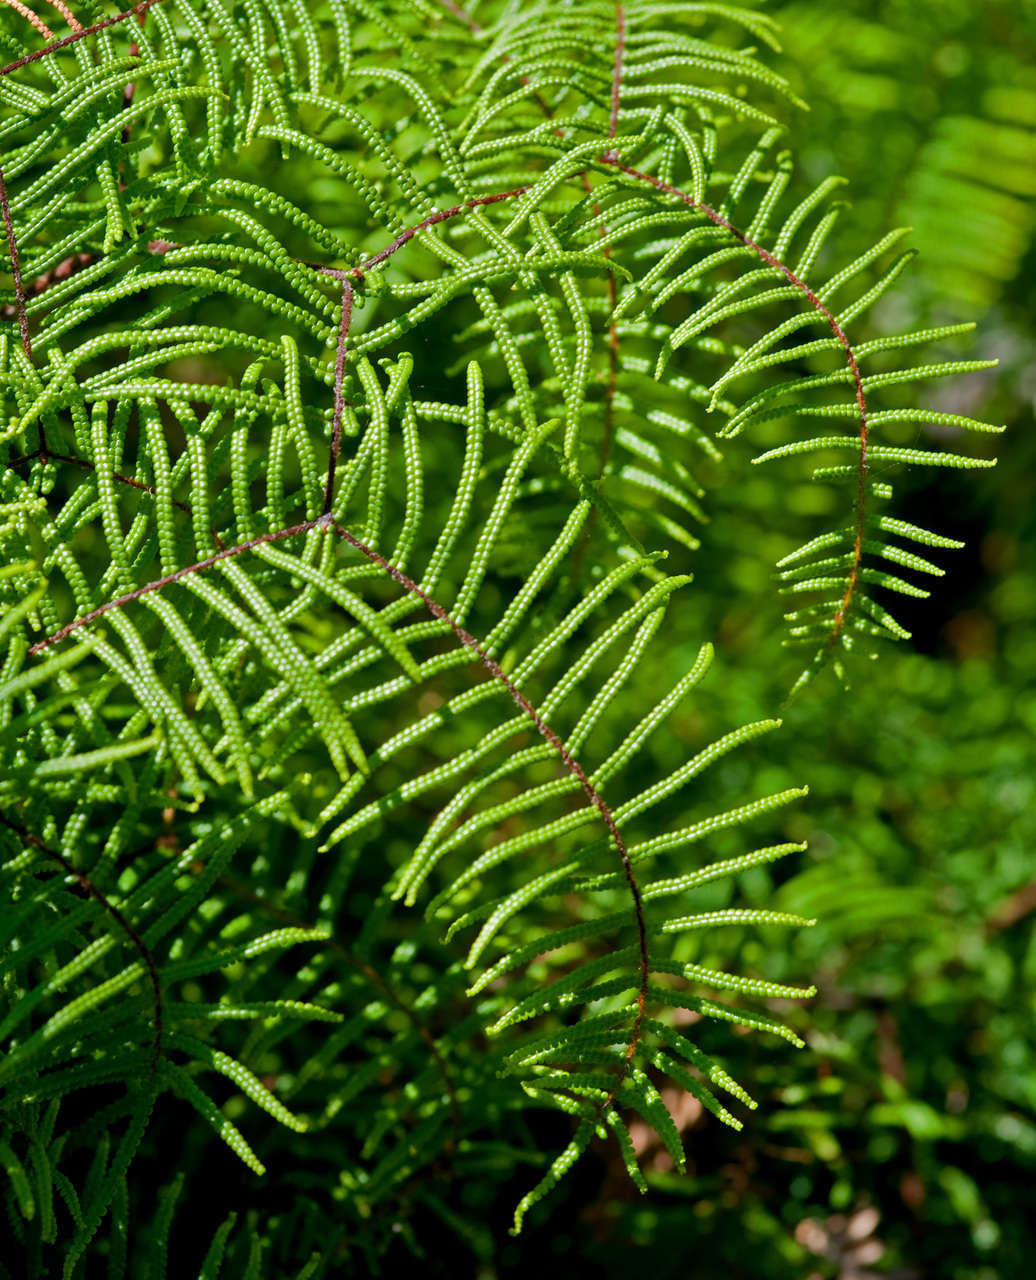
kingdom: Plantae
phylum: Tracheophyta
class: Polypodiopsida
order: Gleicheniales
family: Gleicheniaceae
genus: Gleichenia
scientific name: Gleichenia dicarpa
